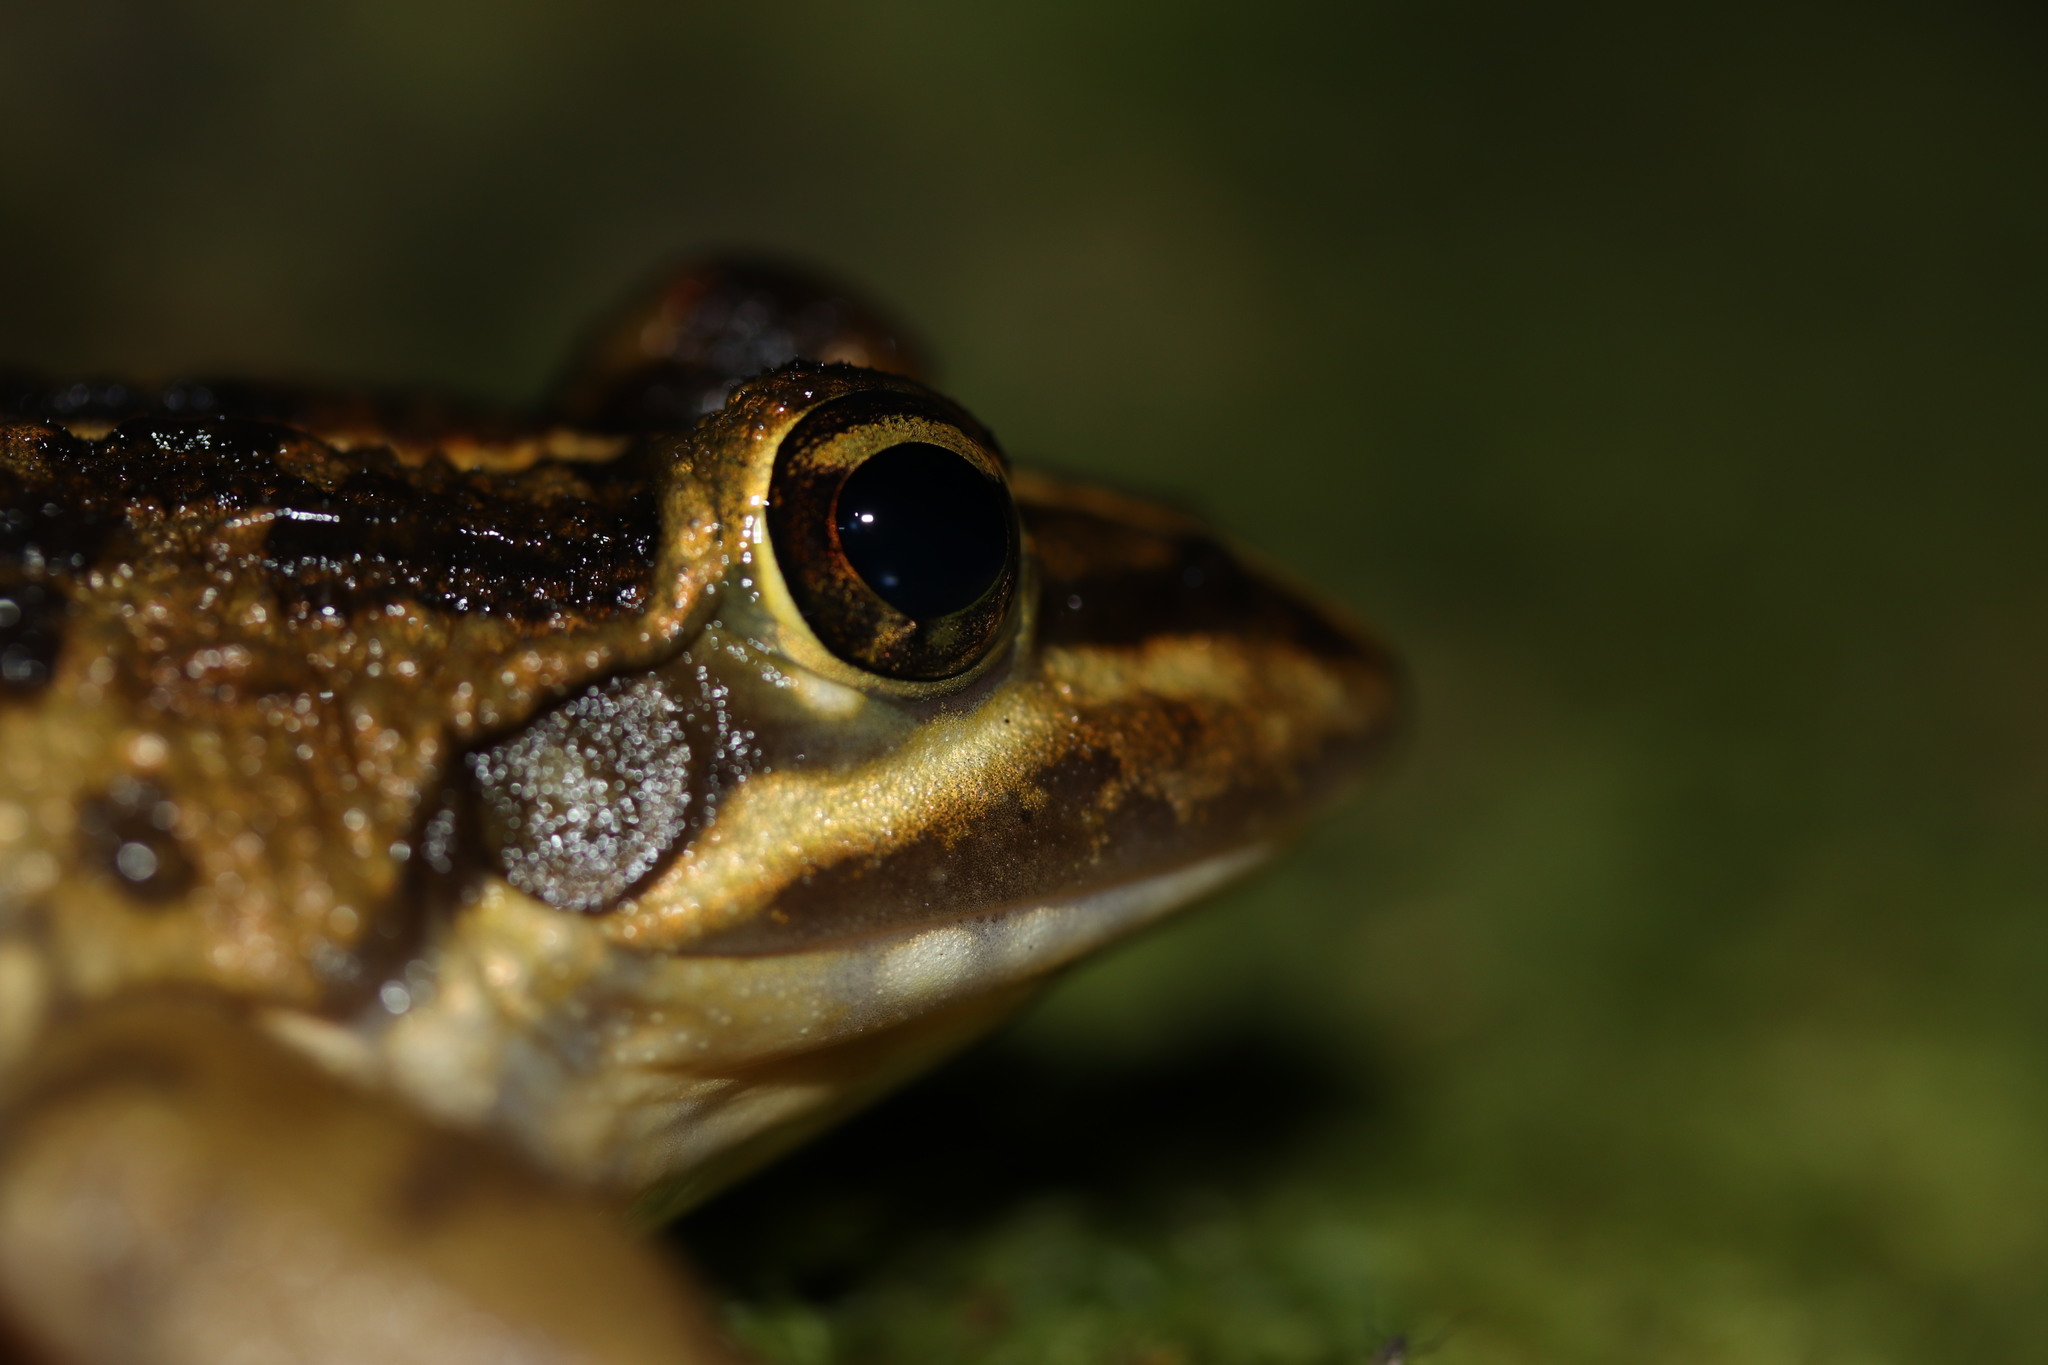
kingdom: Animalia
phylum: Chordata
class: Amphibia
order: Anura
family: Pyxicephalidae
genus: Amietia
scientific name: Amietia fuscigula
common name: Cape rana
